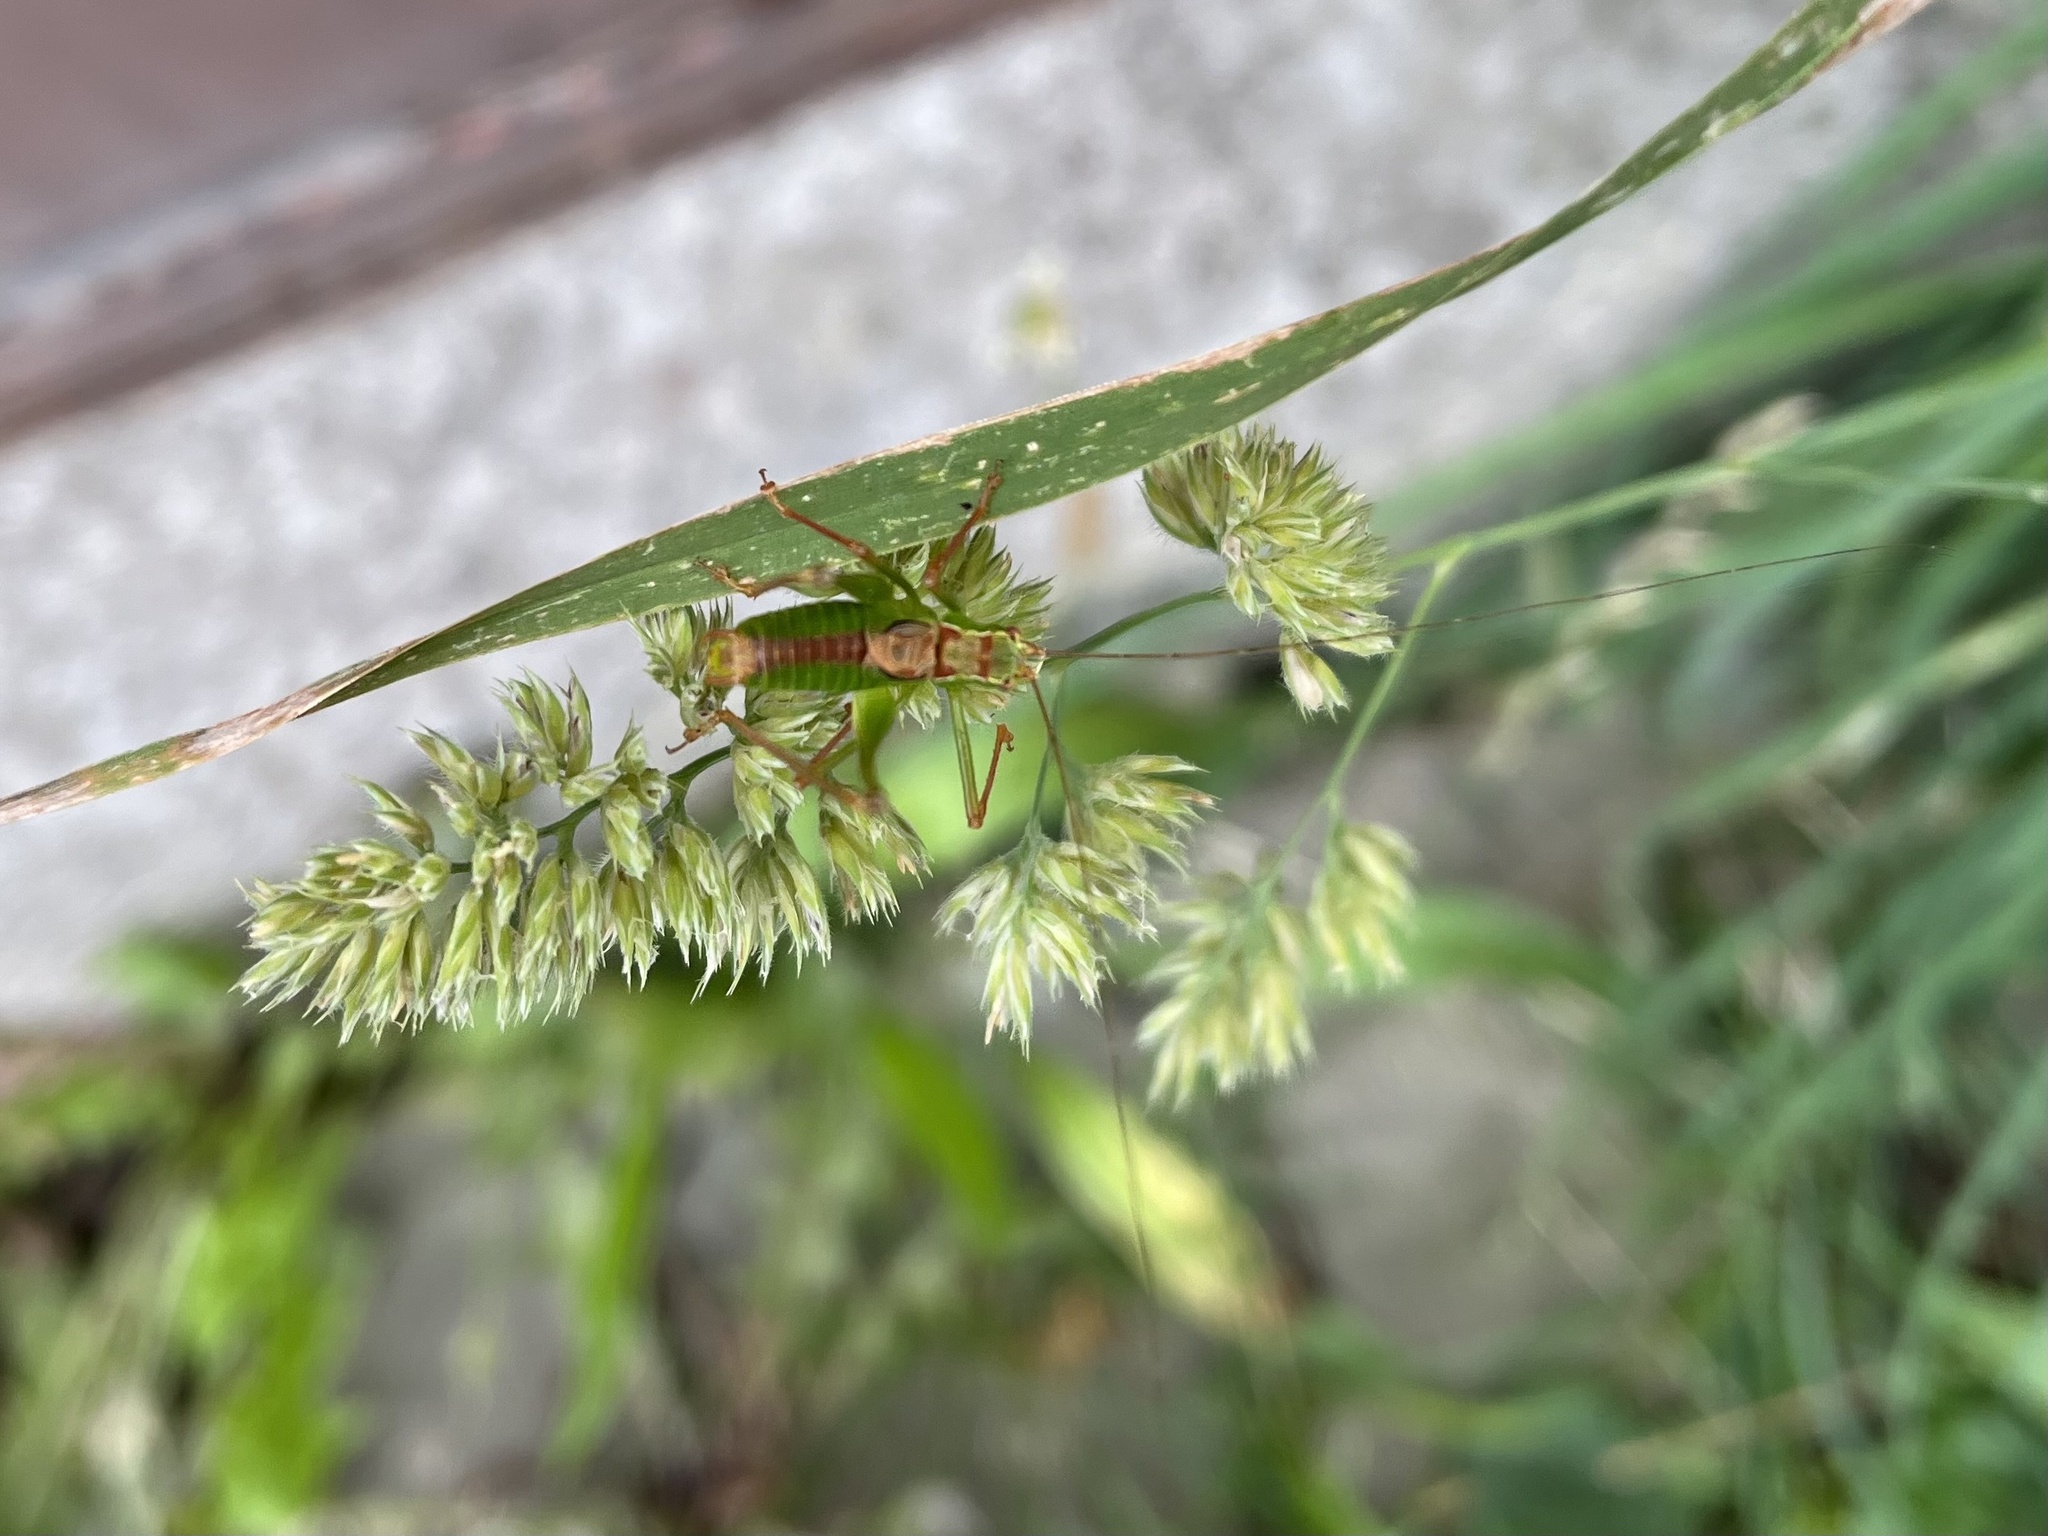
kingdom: Animalia
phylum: Arthropoda
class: Insecta
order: Orthoptera
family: Tettigoniidae
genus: Leptophyes
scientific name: Leptophyes punctatissima
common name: Speckled bush-cricket
